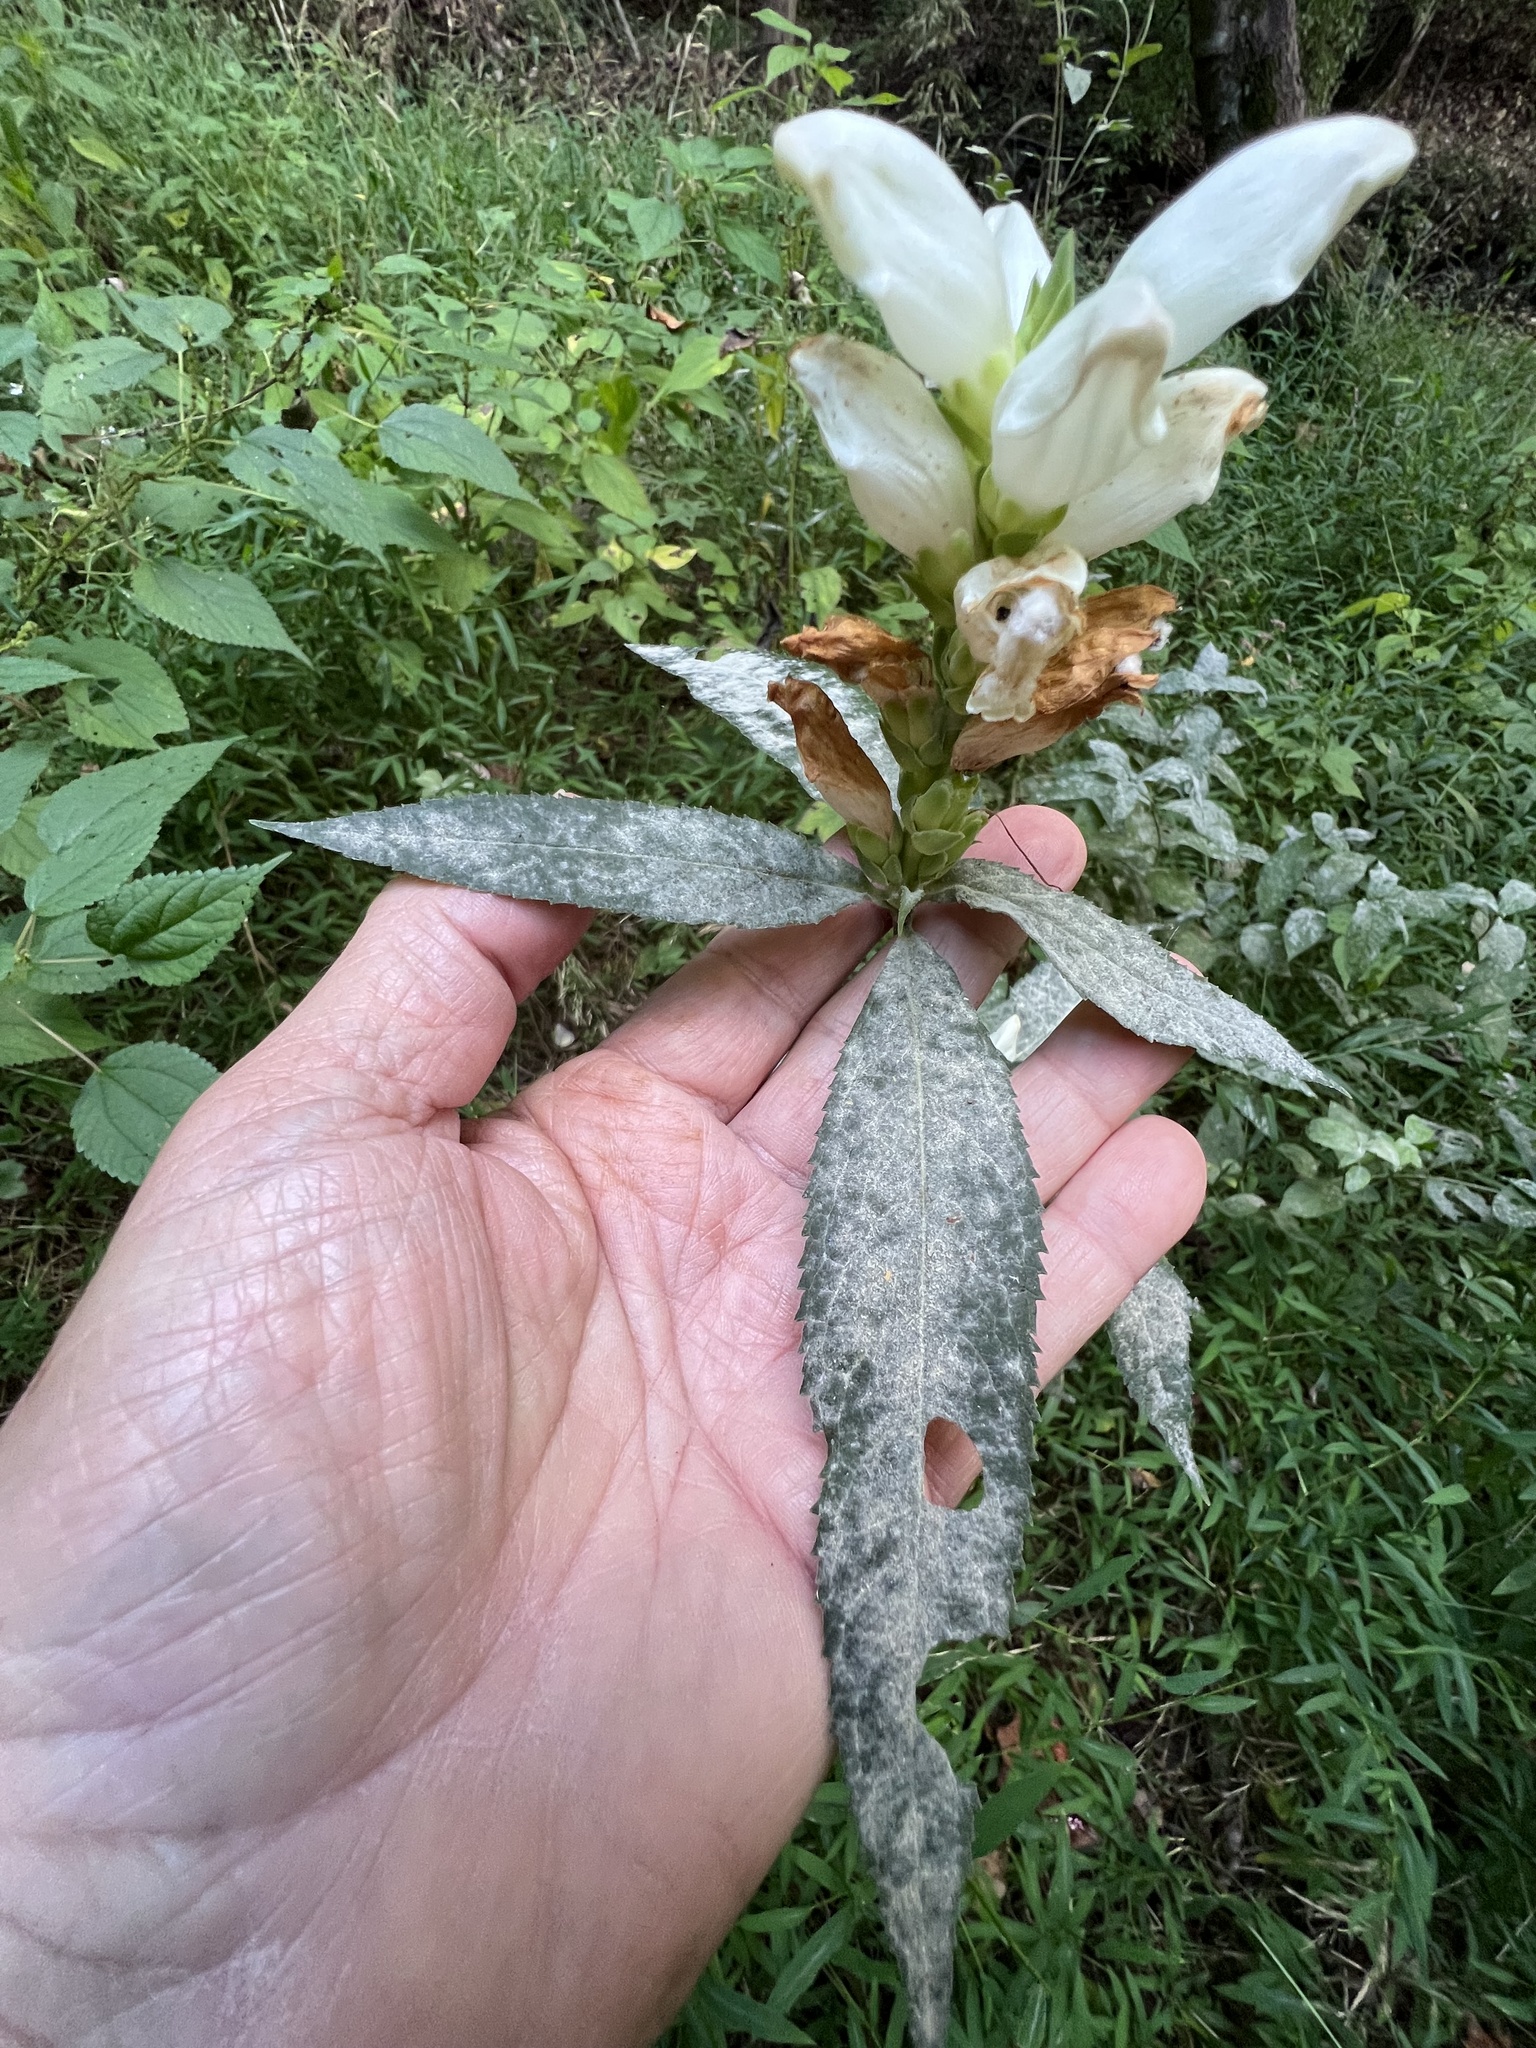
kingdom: Fungi
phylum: Ascomycota
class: Leotiomycetes
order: Helotiales
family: Erysiphaceae
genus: Neoerysiphe
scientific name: Neoerysiphe chelones
